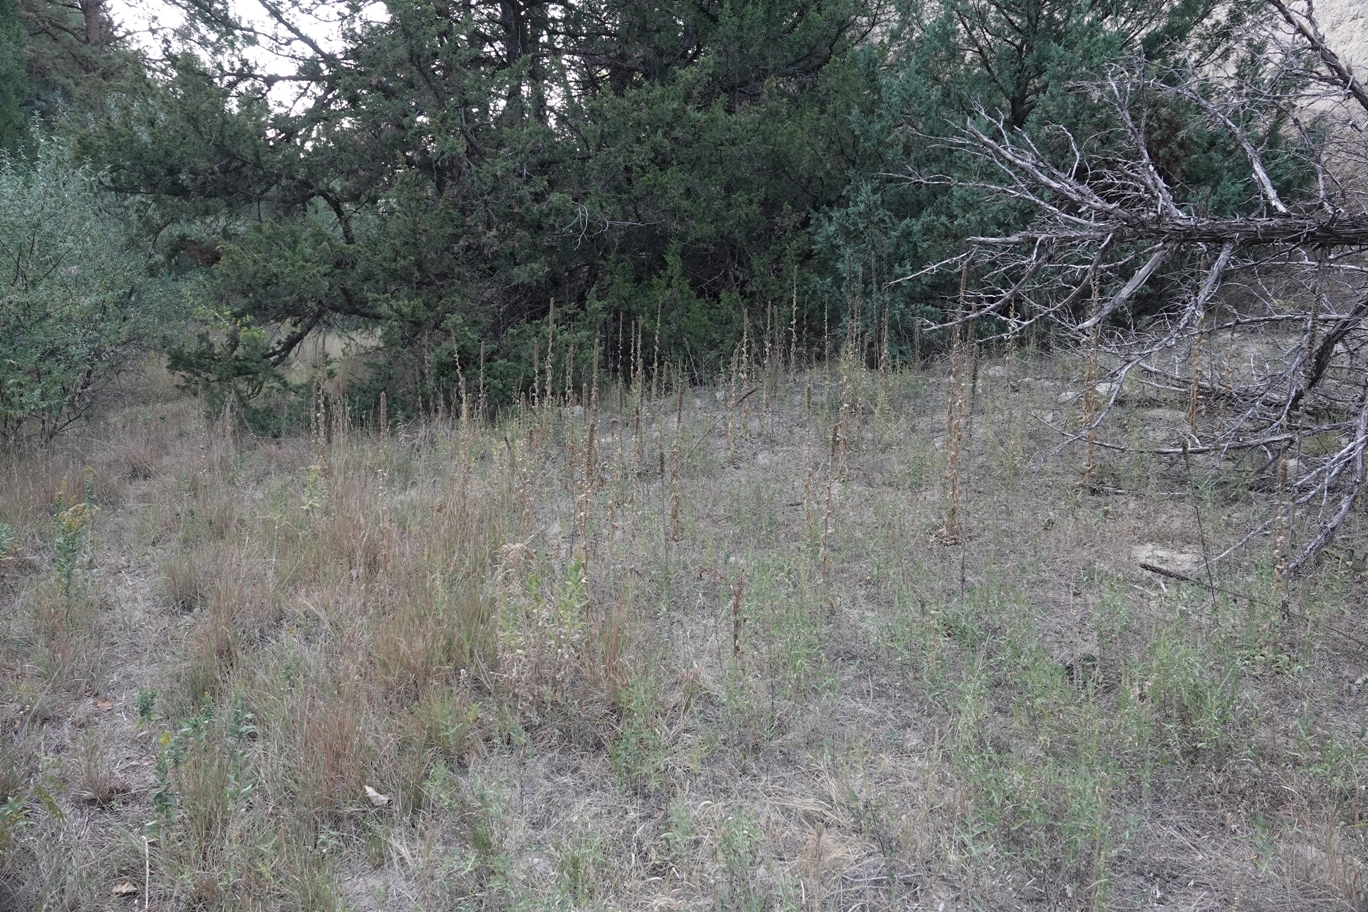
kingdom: Plantae
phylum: Tracheophyta
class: Magnoliopsida
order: Lamiales
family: Scrophulariaceae
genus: Verbascum
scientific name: Verbascum thapsus
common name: Common mullein
